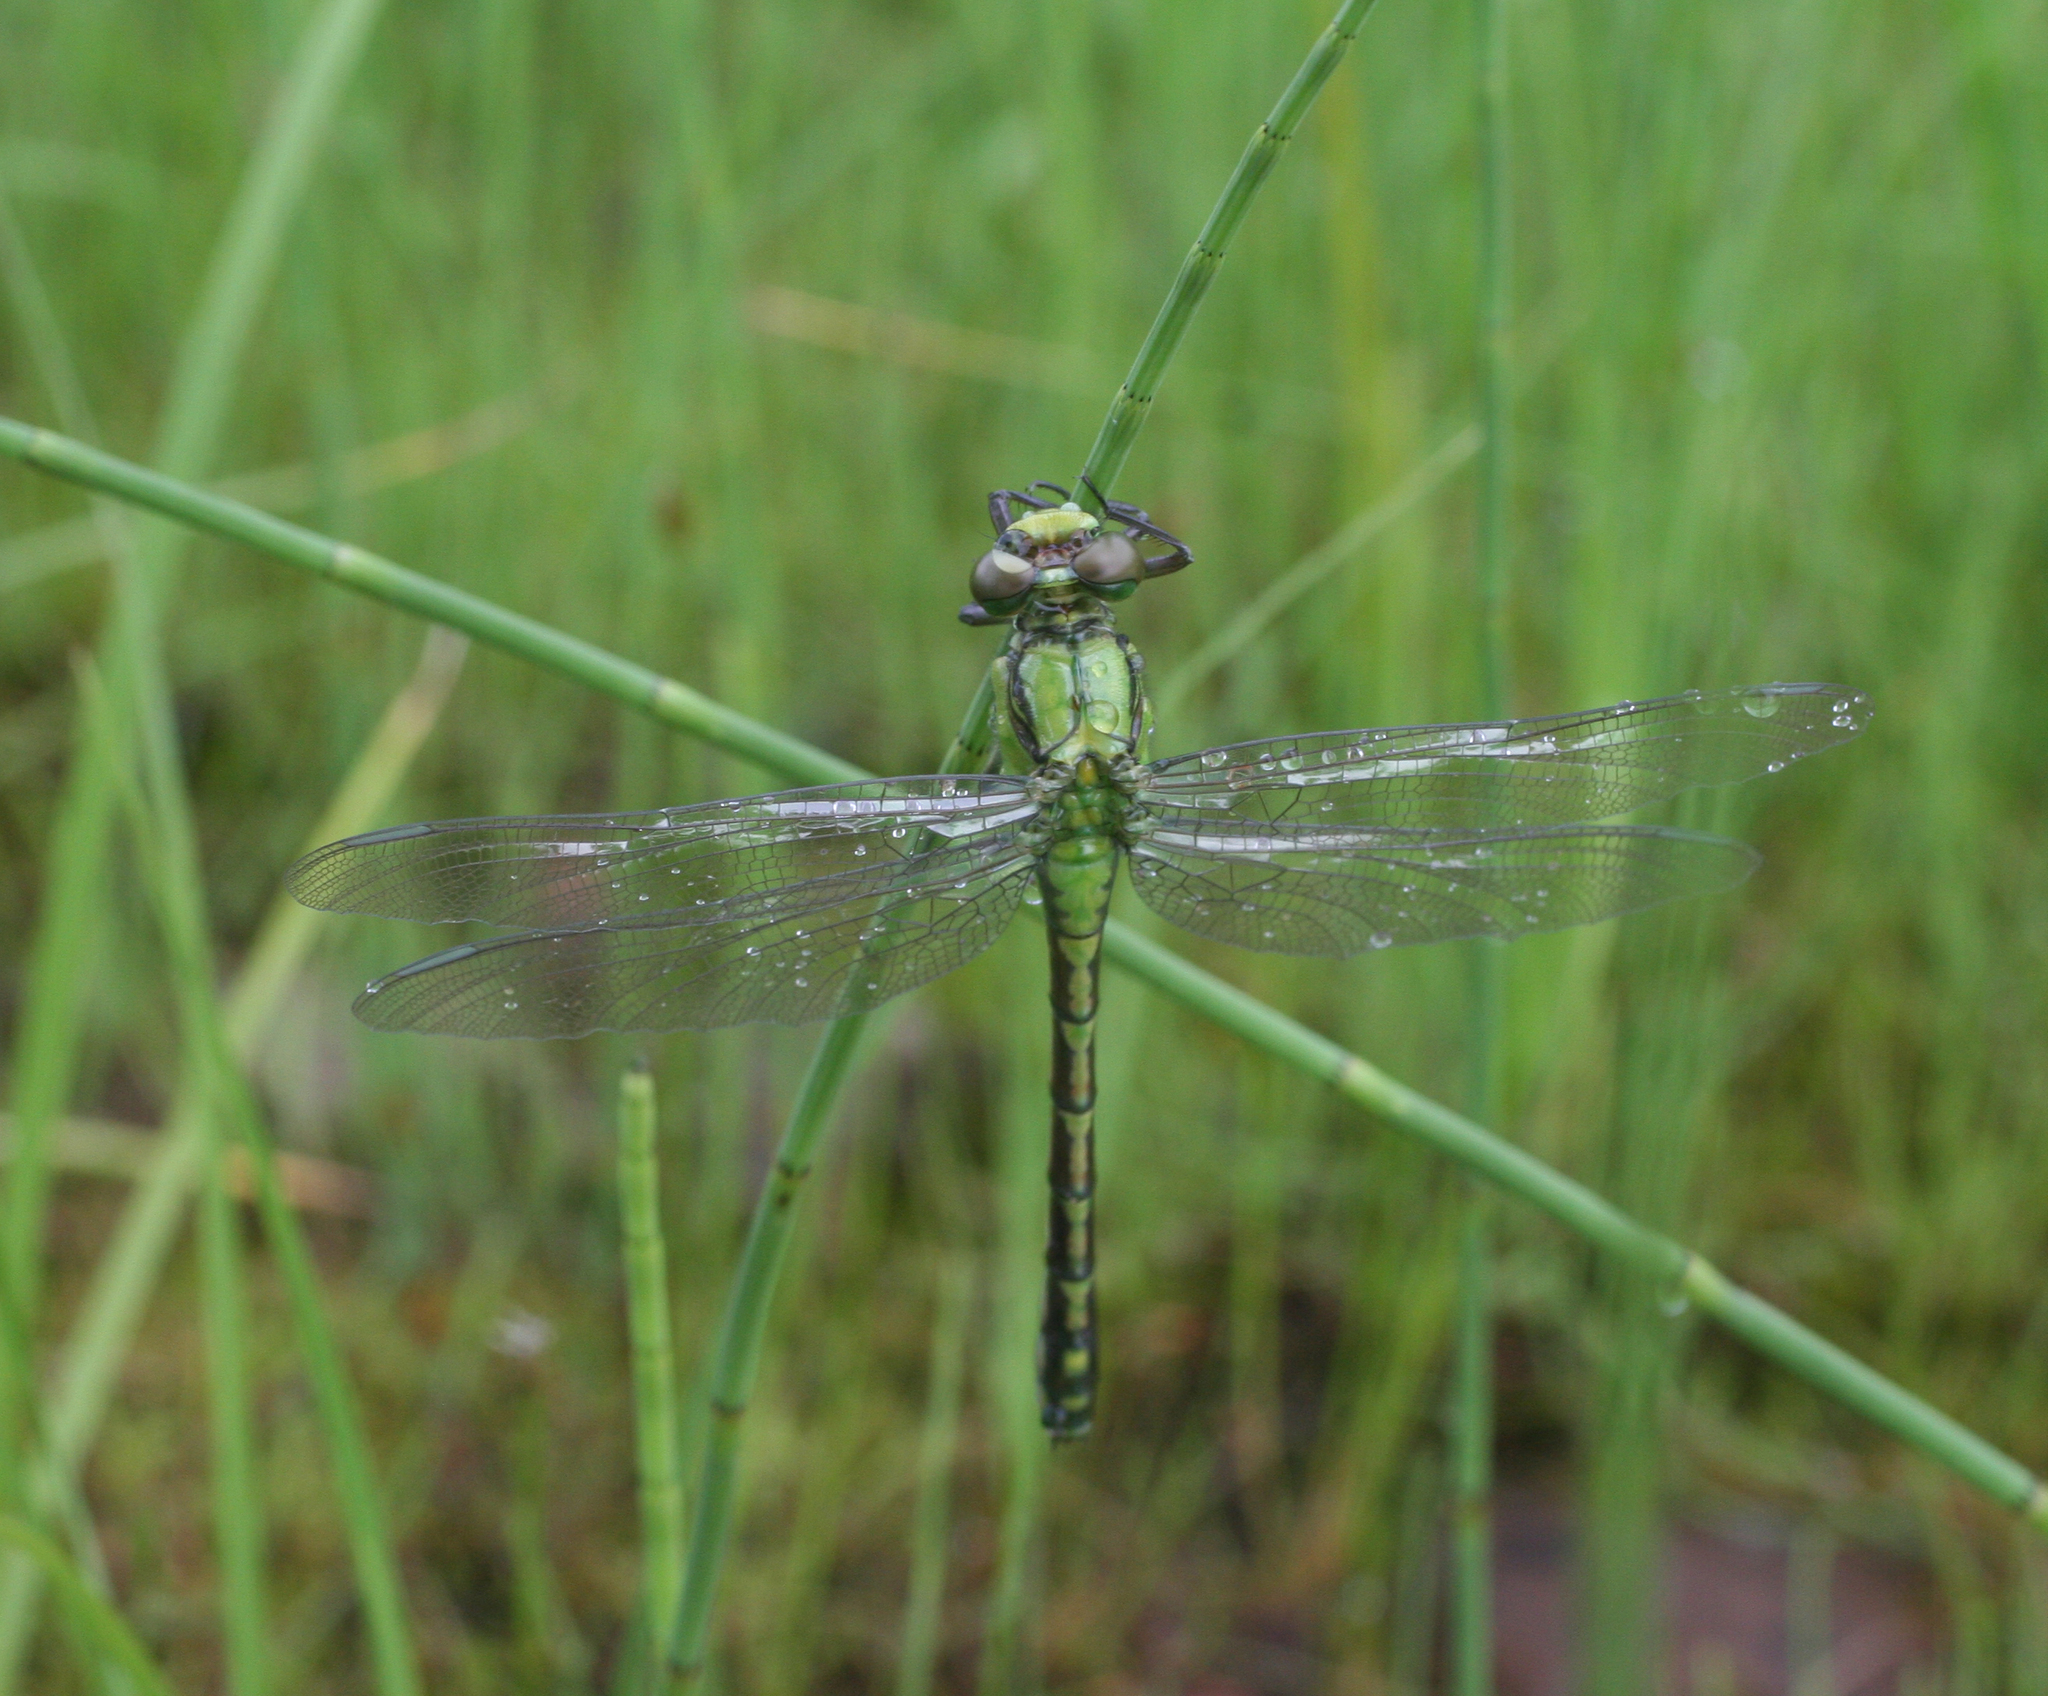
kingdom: Animalia
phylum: Arthropoda
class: Insecta
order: Odonata
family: Gomphidae
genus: Ophiogomphus
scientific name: Ophiogomphus obscurus
